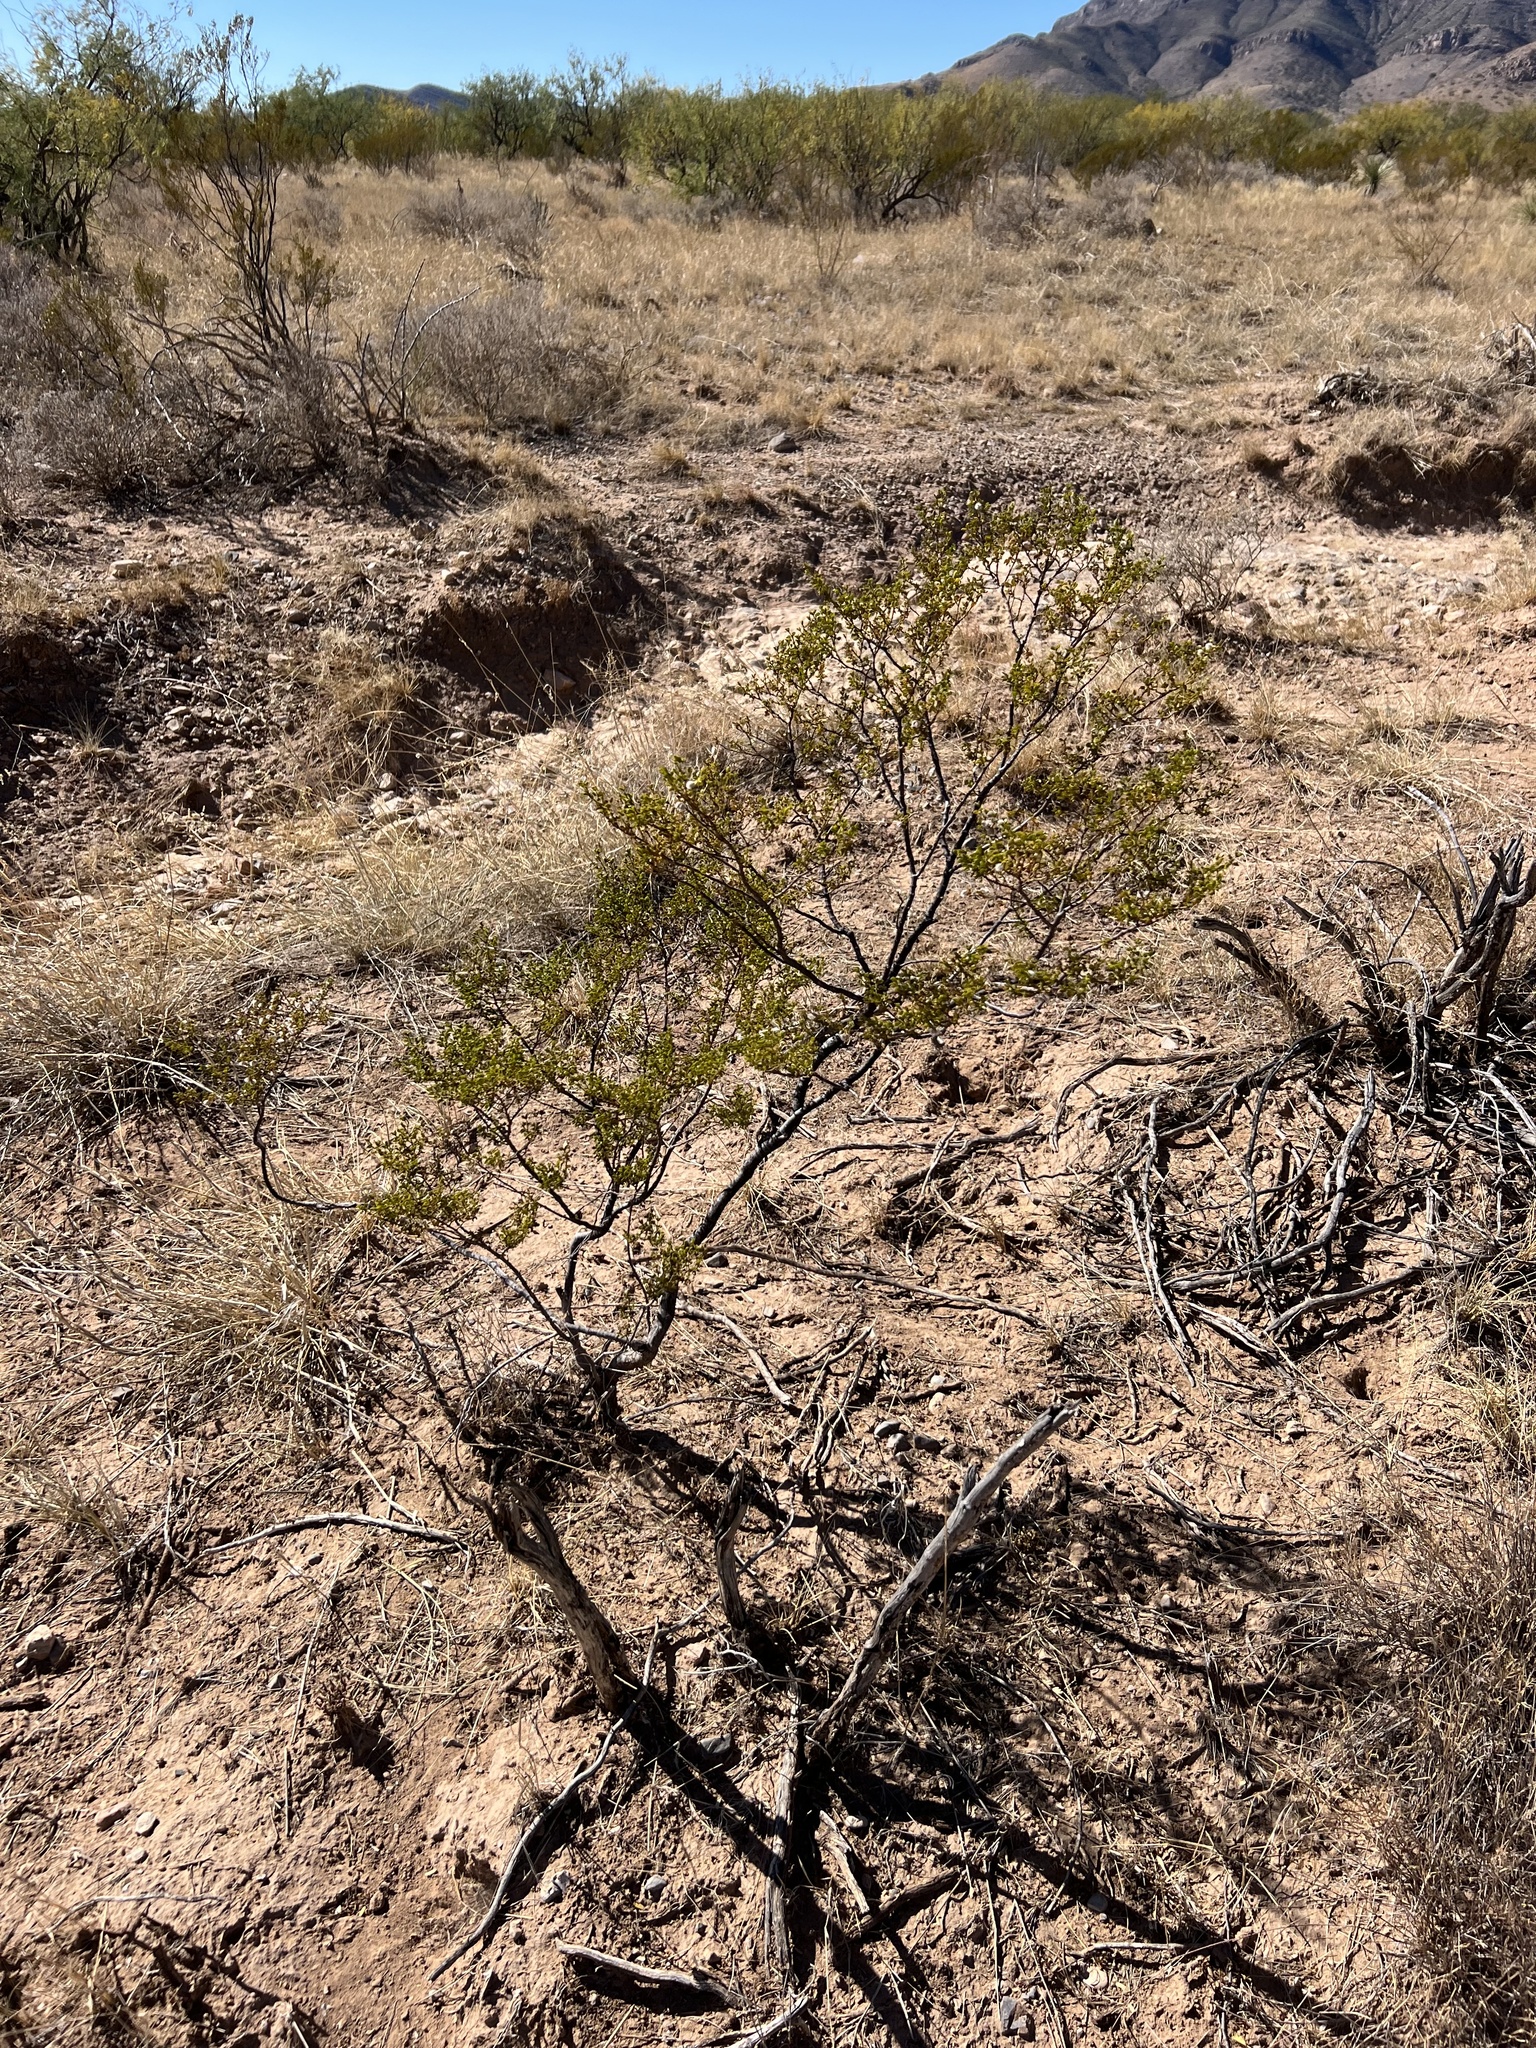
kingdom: Plantae
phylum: Tracheophyta
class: Magnoliopsida
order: Zygophyllales
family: Zygophyllaceae
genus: Larrea
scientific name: Larrea tridentata
